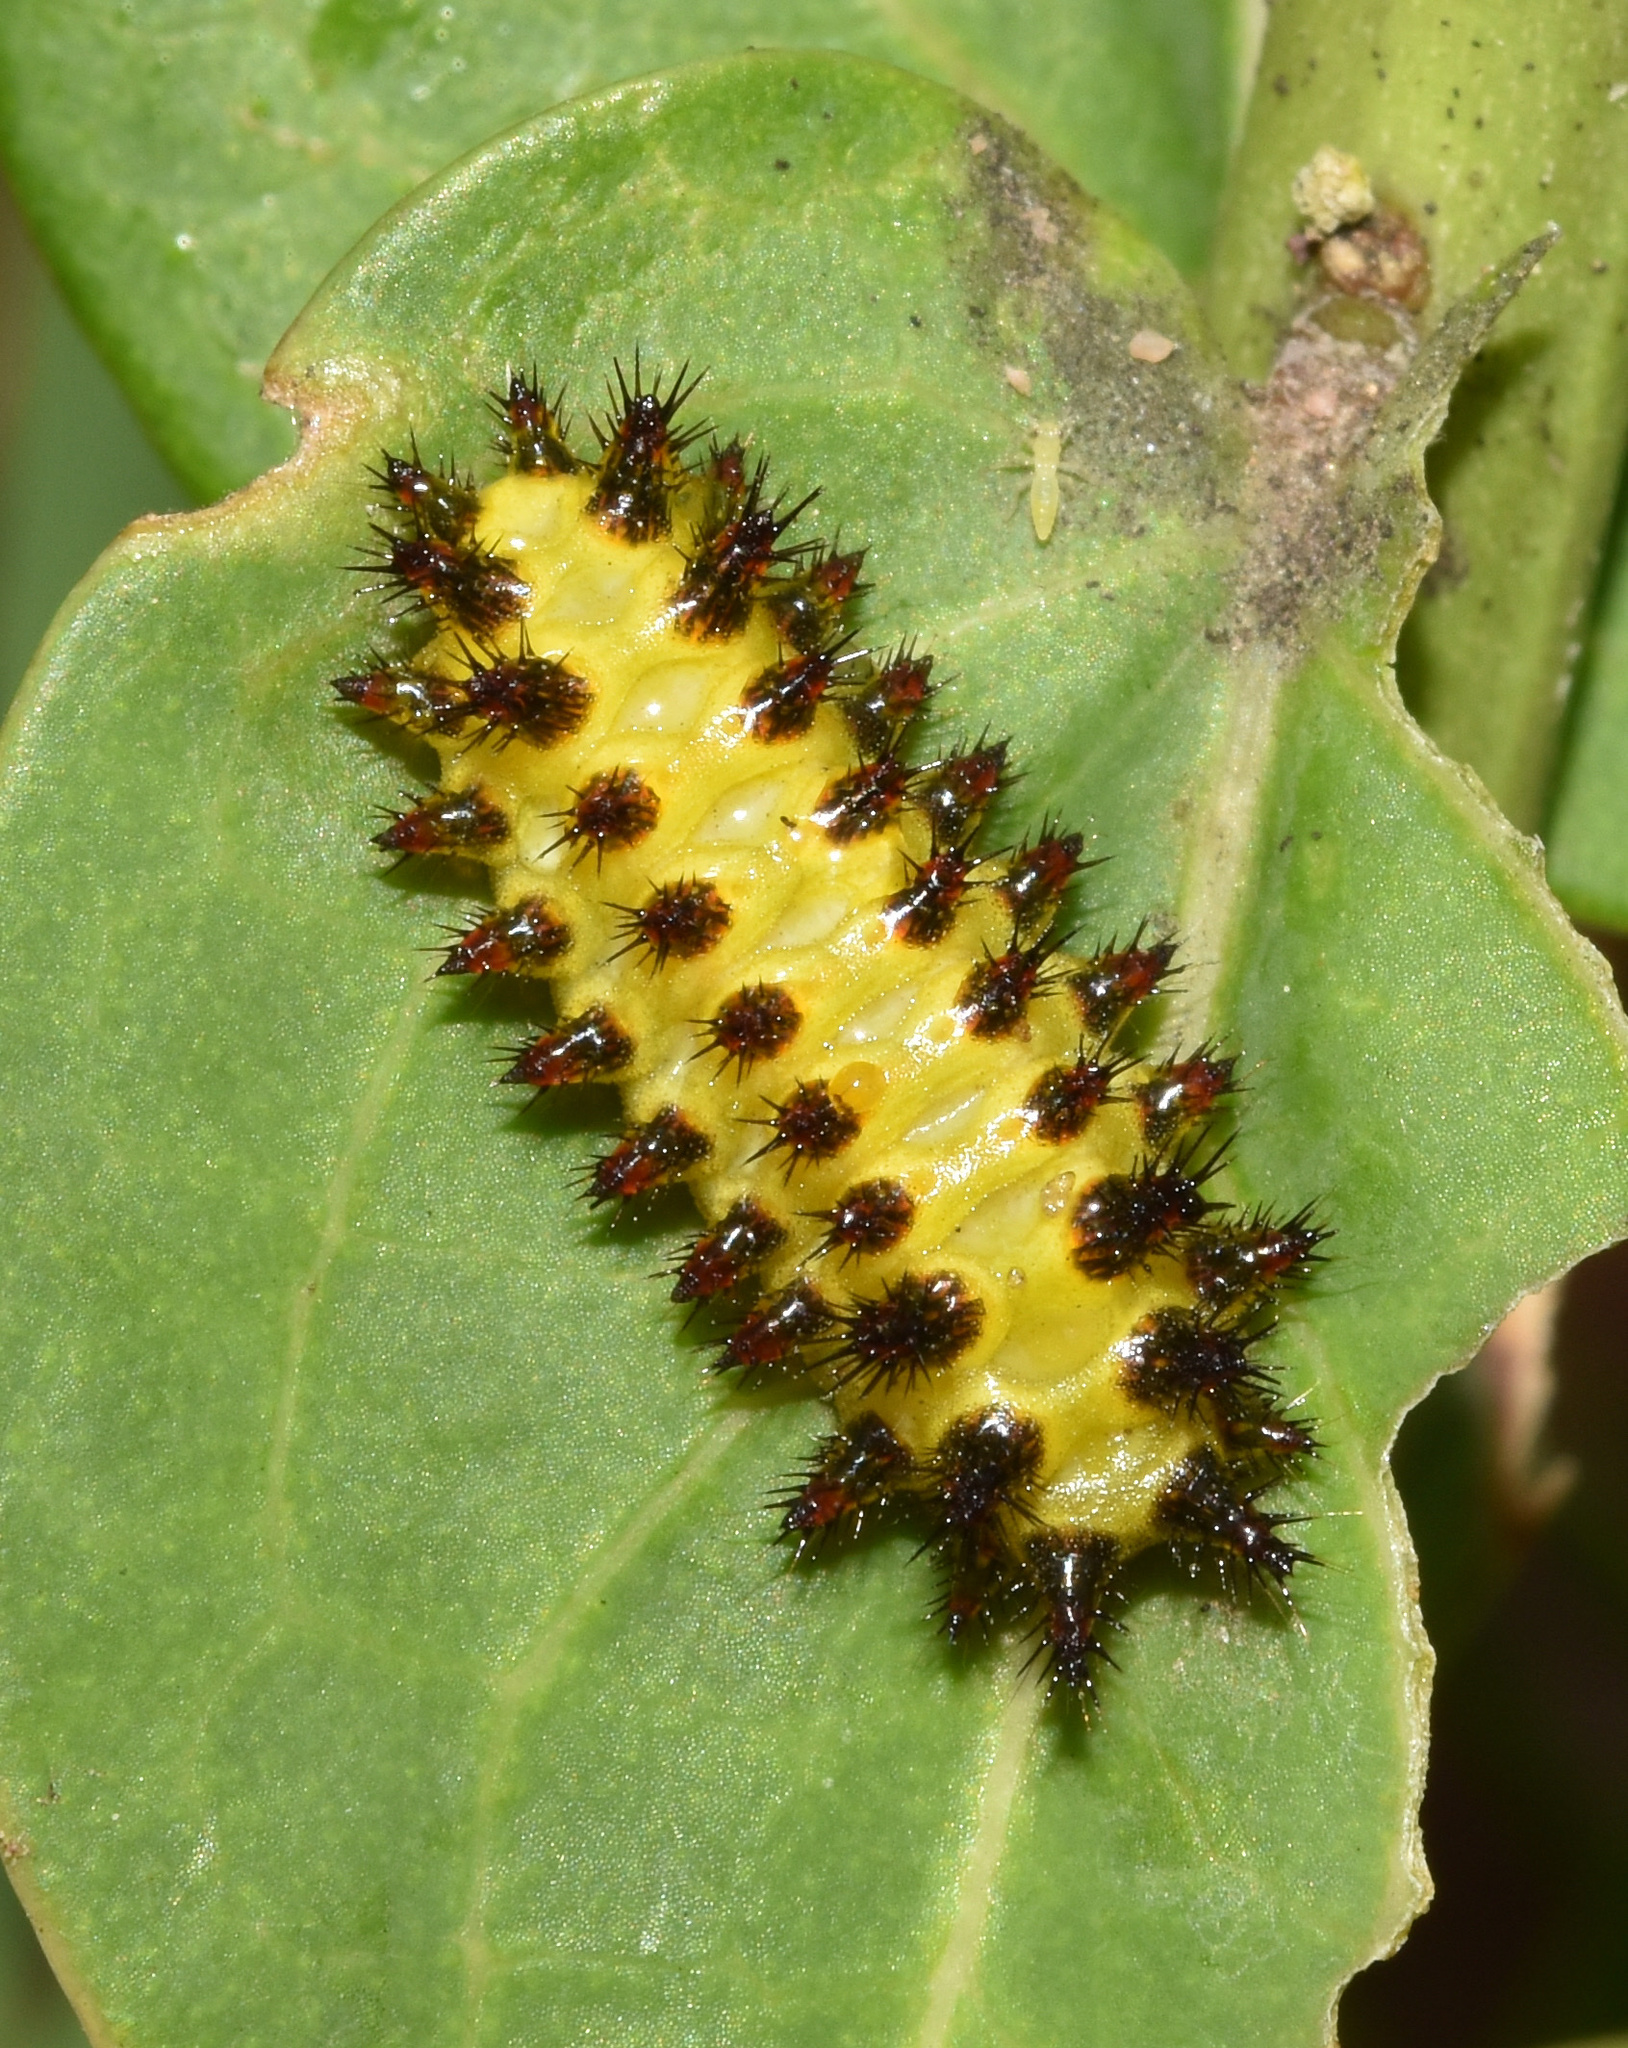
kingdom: Animalia
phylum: Arthropoda
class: Insecta
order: Lepidoptera
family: Limacodidae
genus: Sporetolepis
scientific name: Sporetolepis platti
